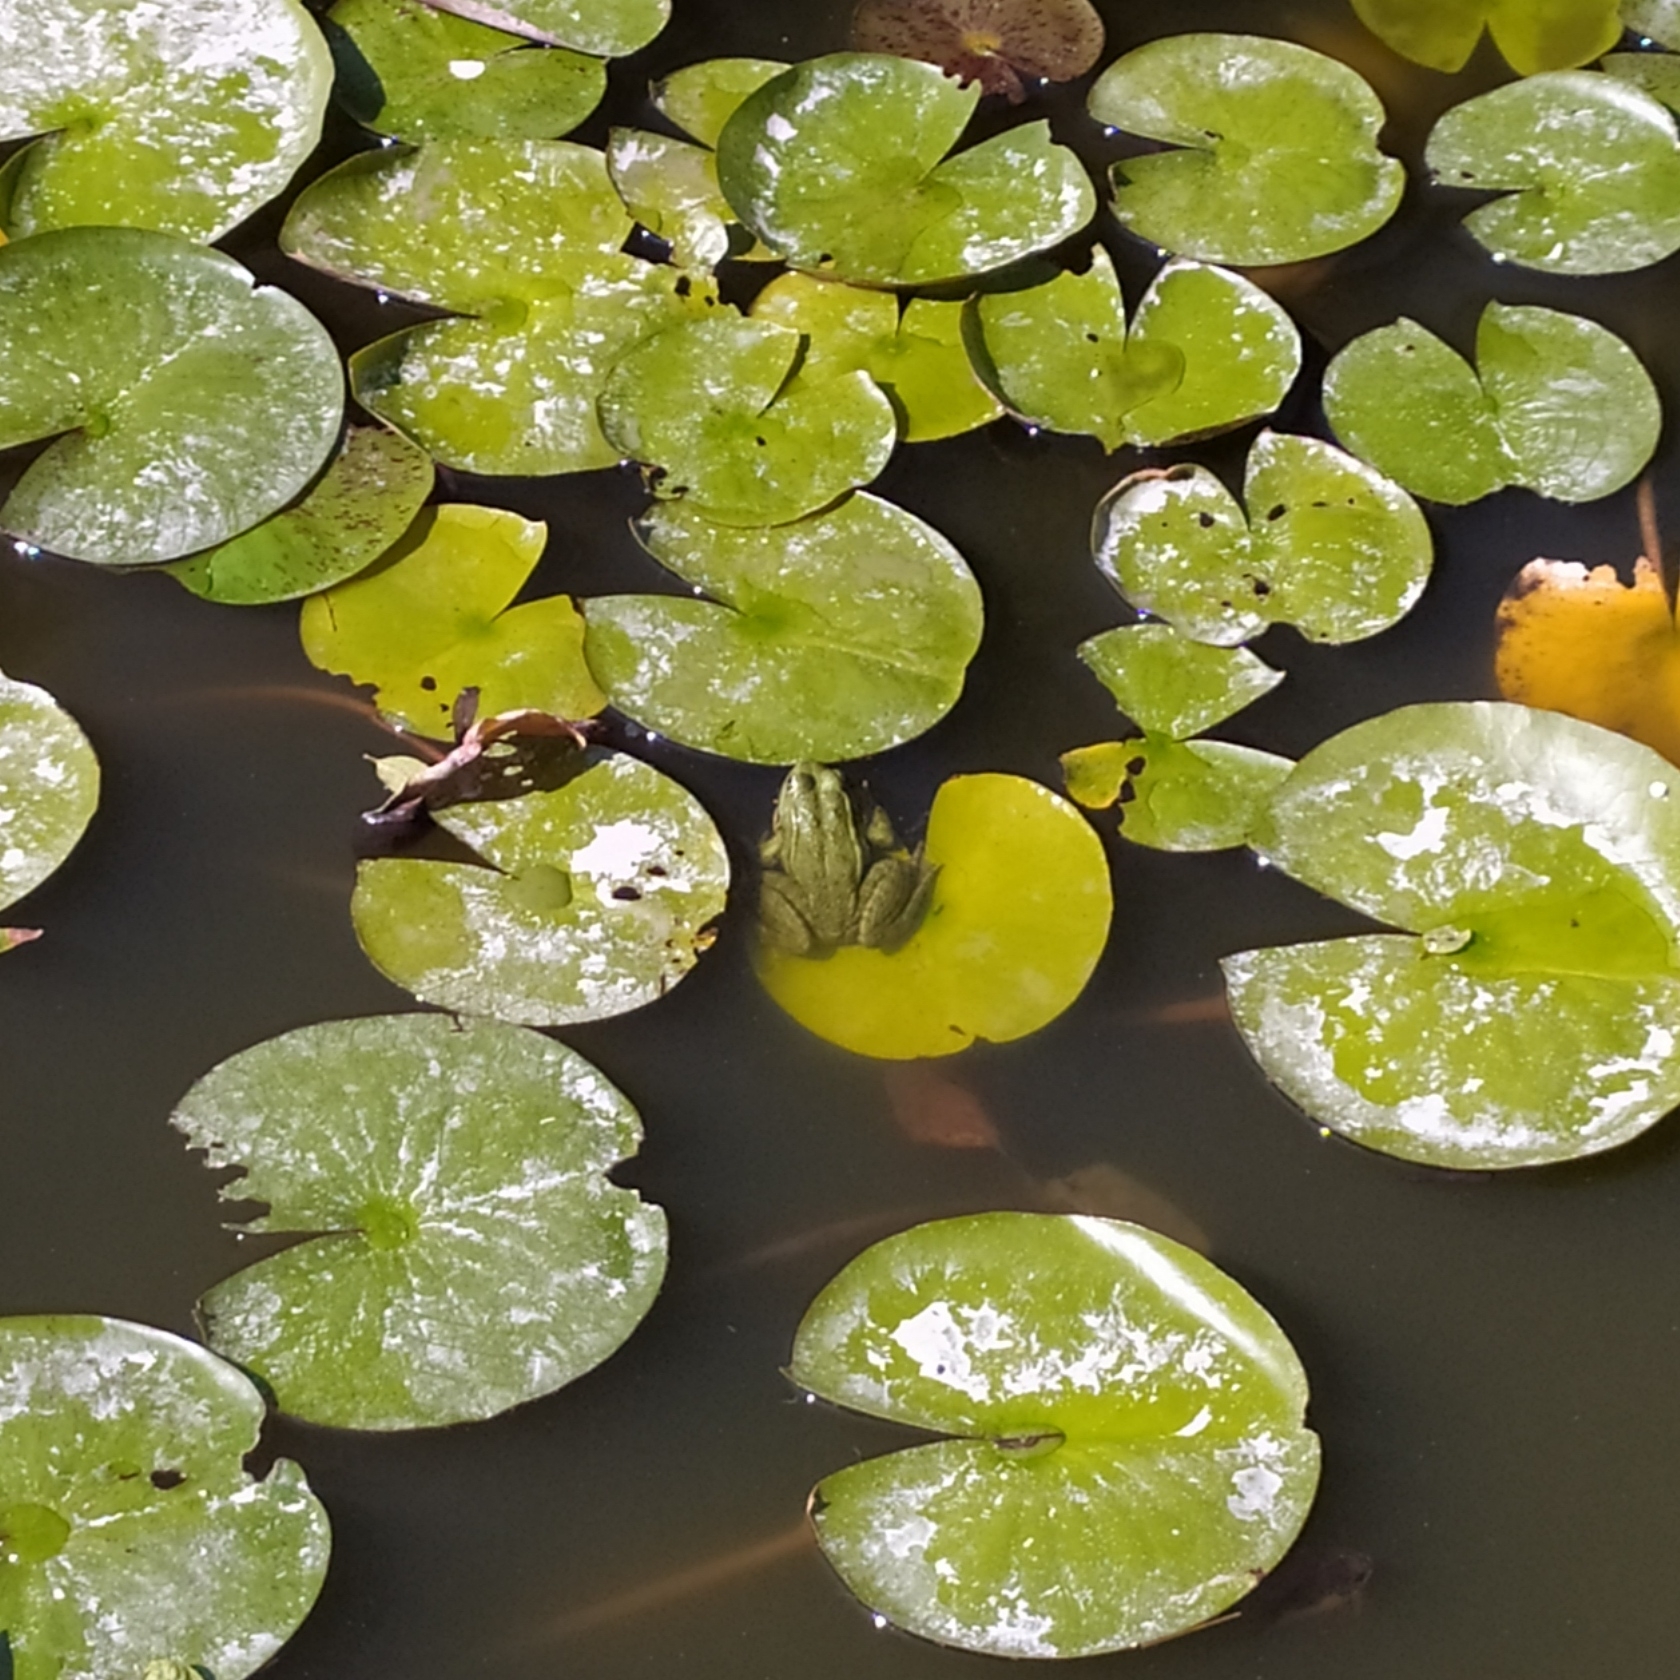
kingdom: Animalia
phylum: Chordata
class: Amphibia
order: Anura
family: Ranidae
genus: Pelophylax
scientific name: Pelophylax ridibundus
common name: Marsh frog
